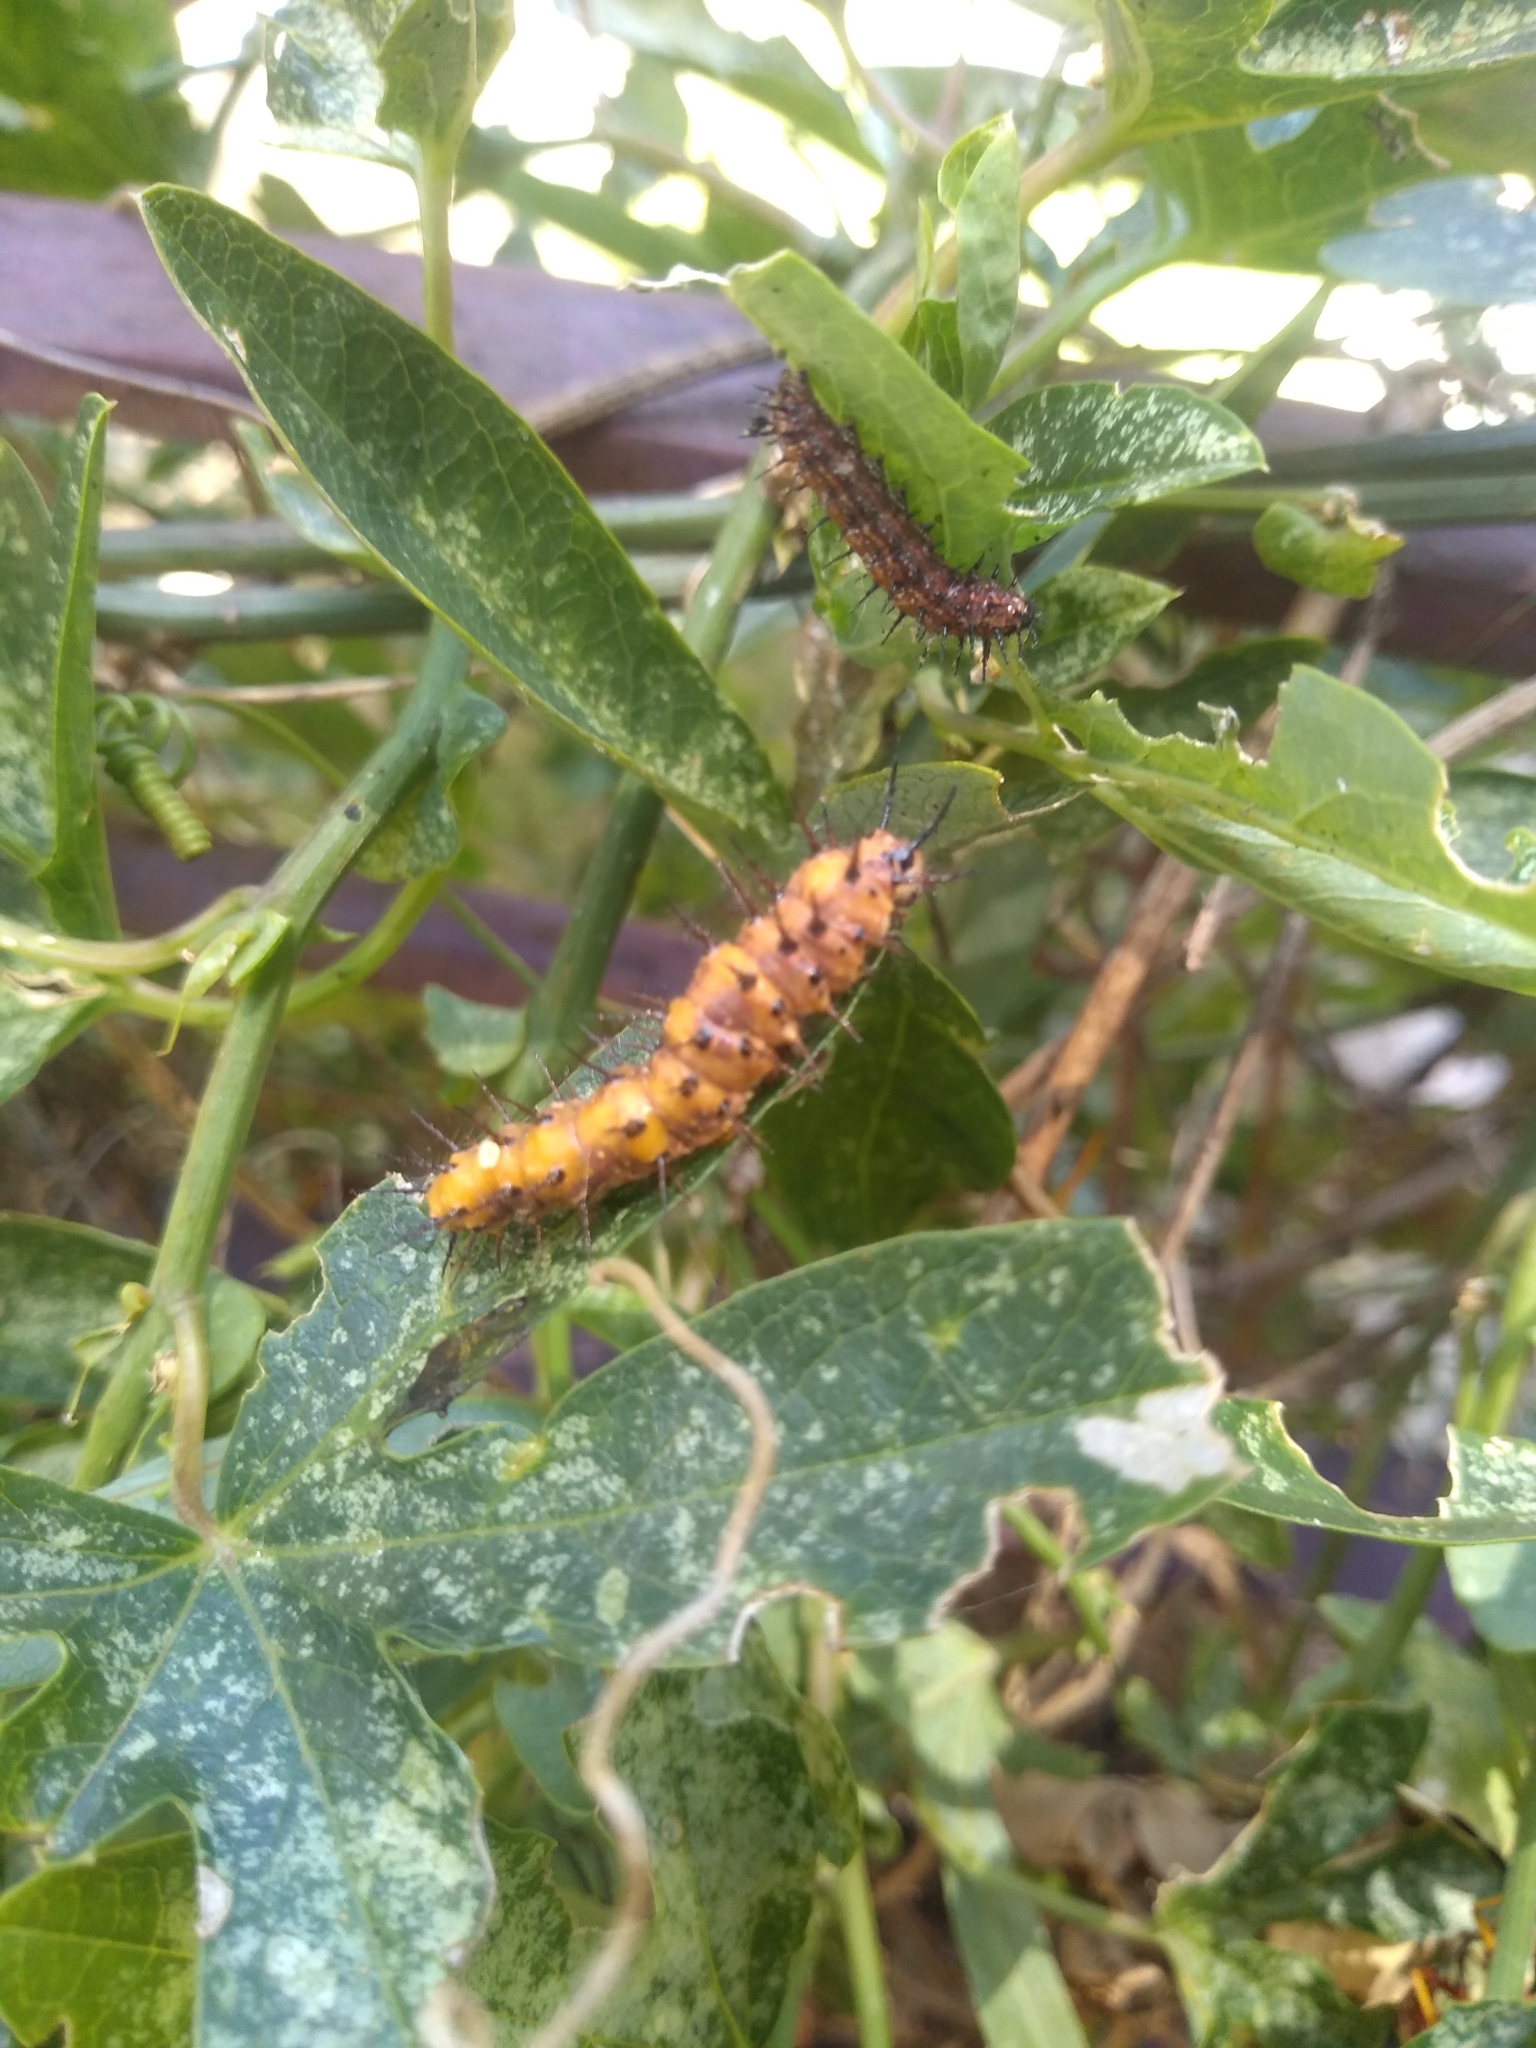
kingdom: Animalia
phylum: Arthropoda
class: Insecta
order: Lepidoptera
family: Nymphalidae
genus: Dione
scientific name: Dione vanillae
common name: Gulf fritillary
